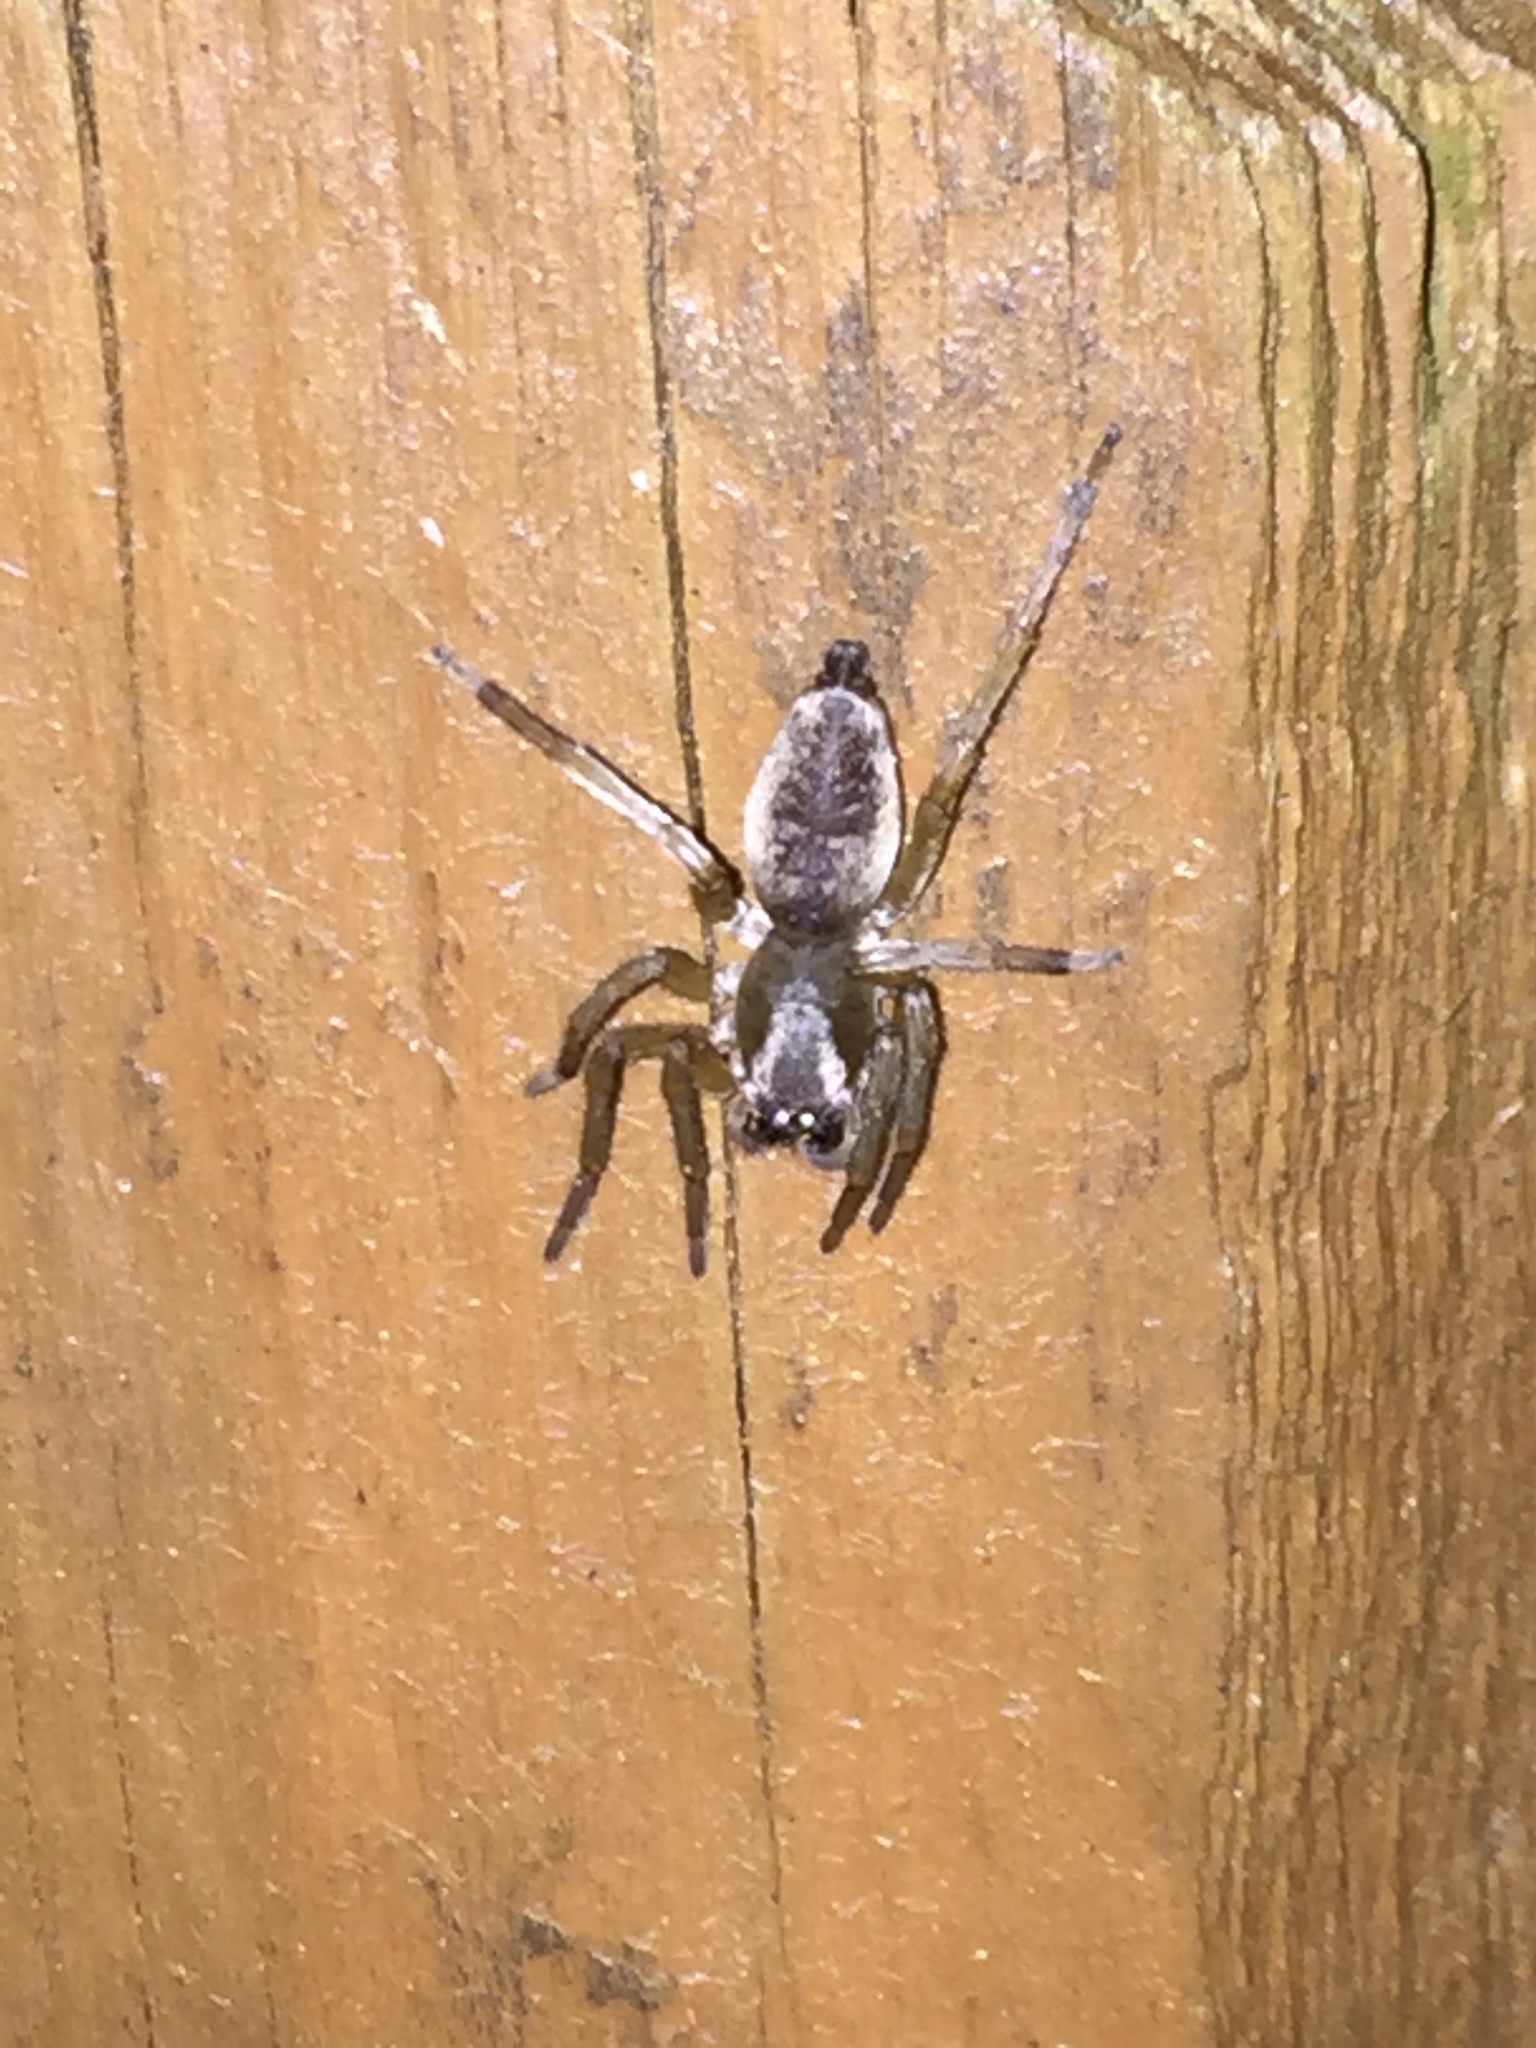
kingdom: Animalia
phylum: Arthropoda
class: Arachnida
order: Araneae
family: Clubionidae
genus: Clubiona
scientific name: Clubiona
